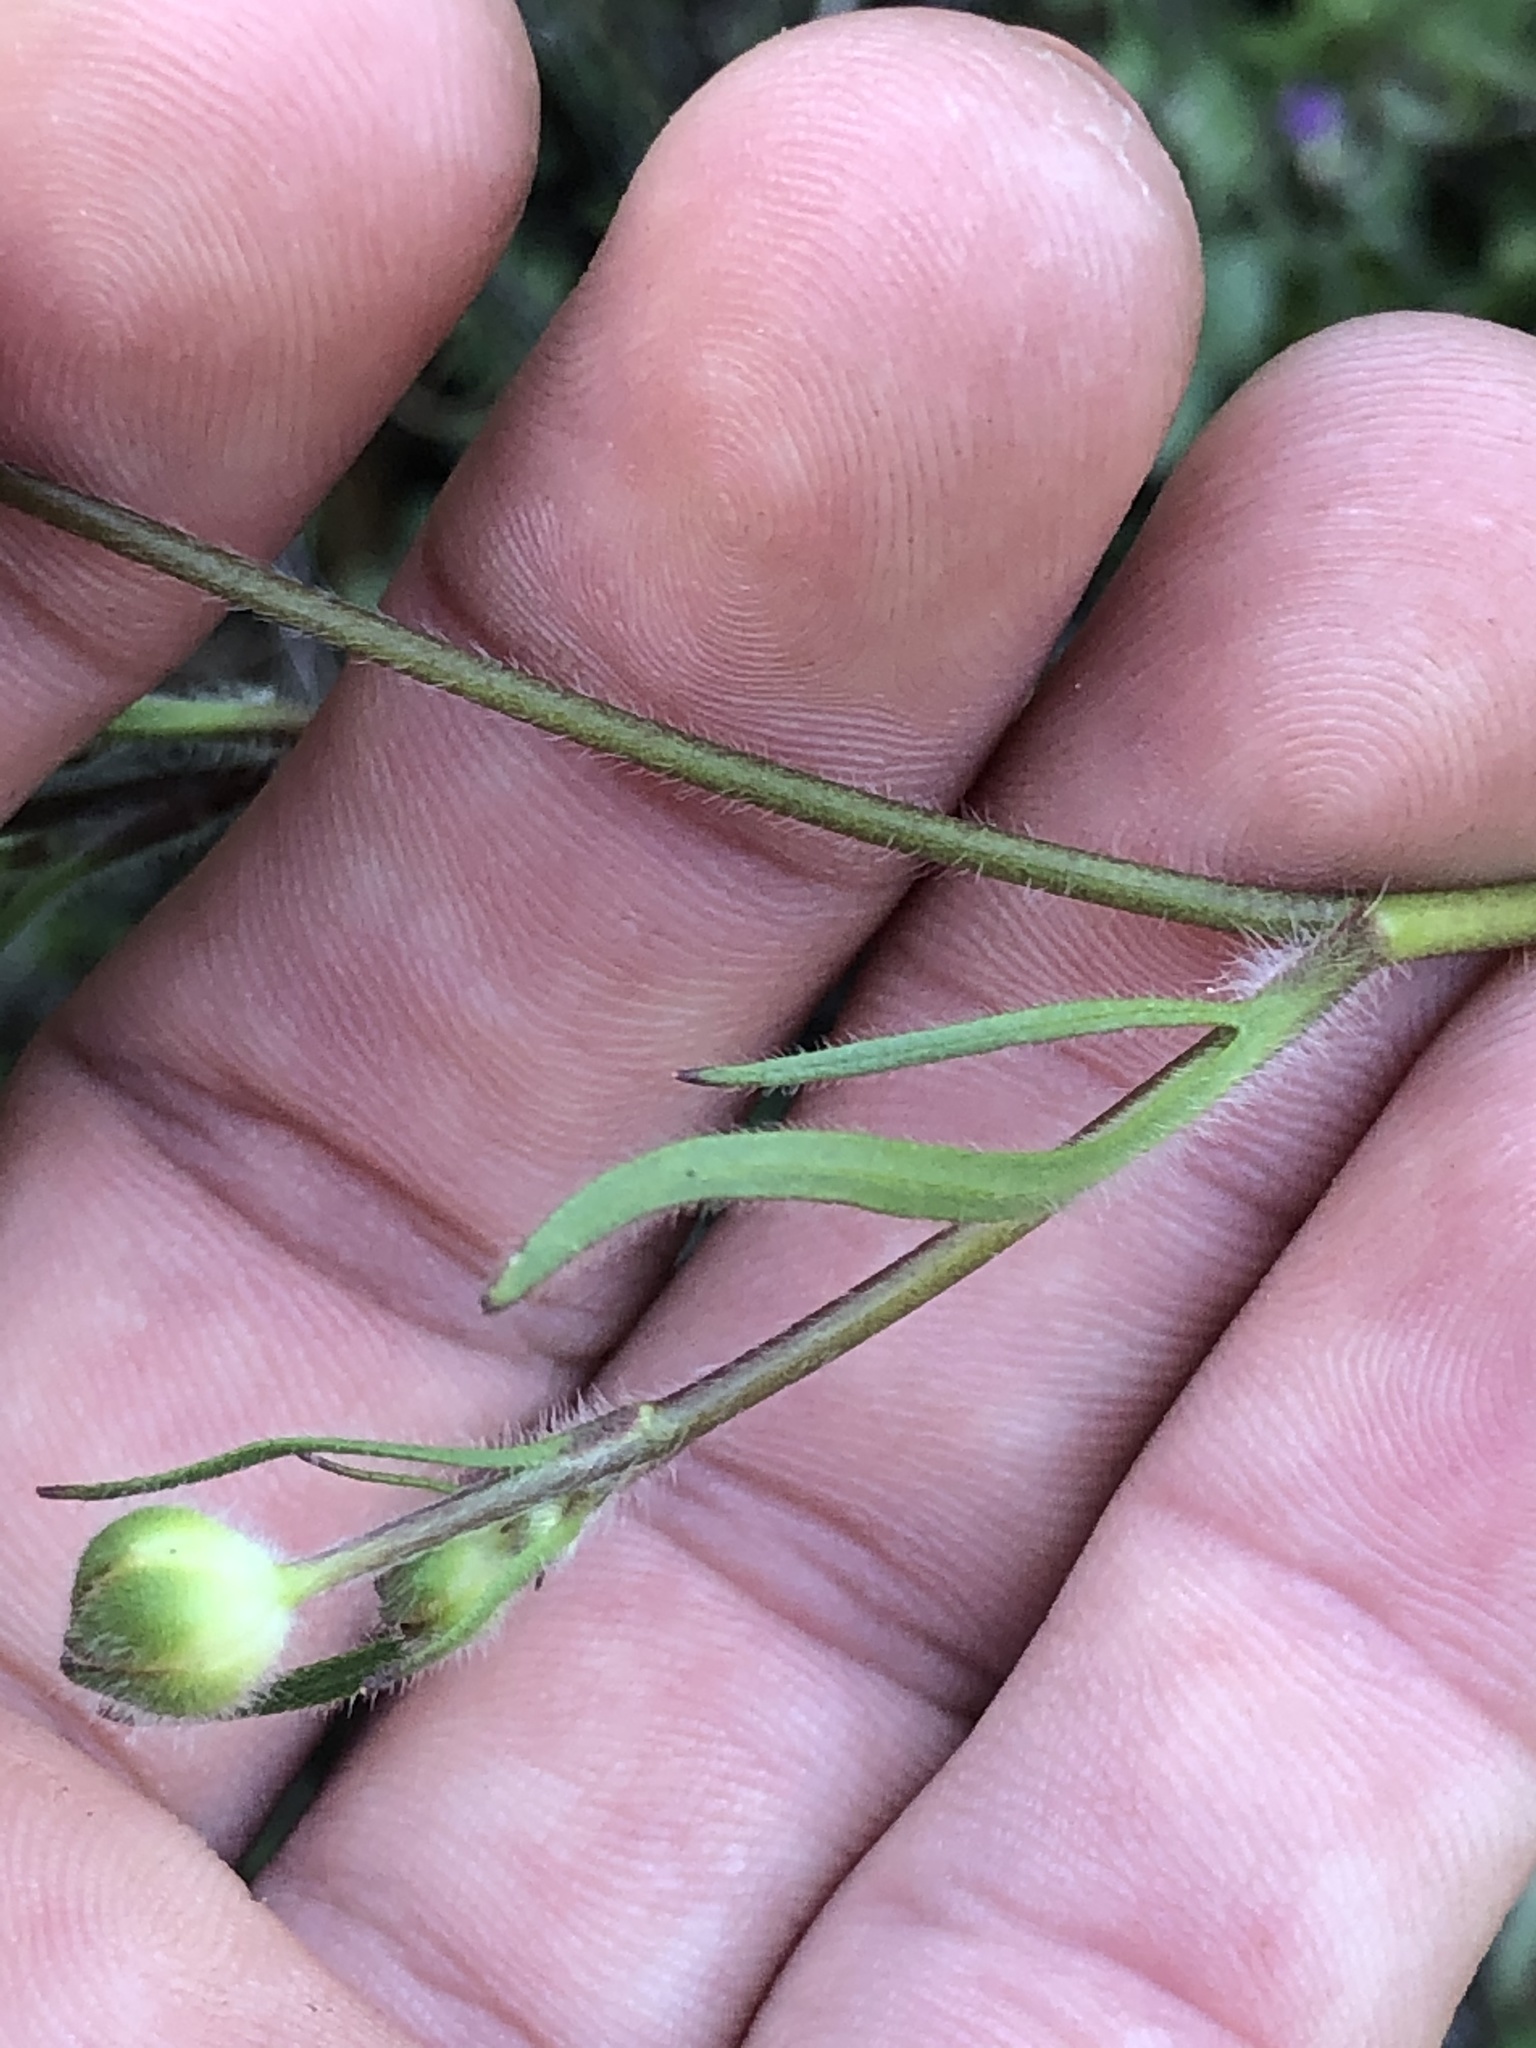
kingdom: Plantae
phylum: Tracheophyta
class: Magnoliopsida
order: Ranunculales
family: Ranunculaceae
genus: Ranunculus
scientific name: Ranunculus californicus
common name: California buttercup
